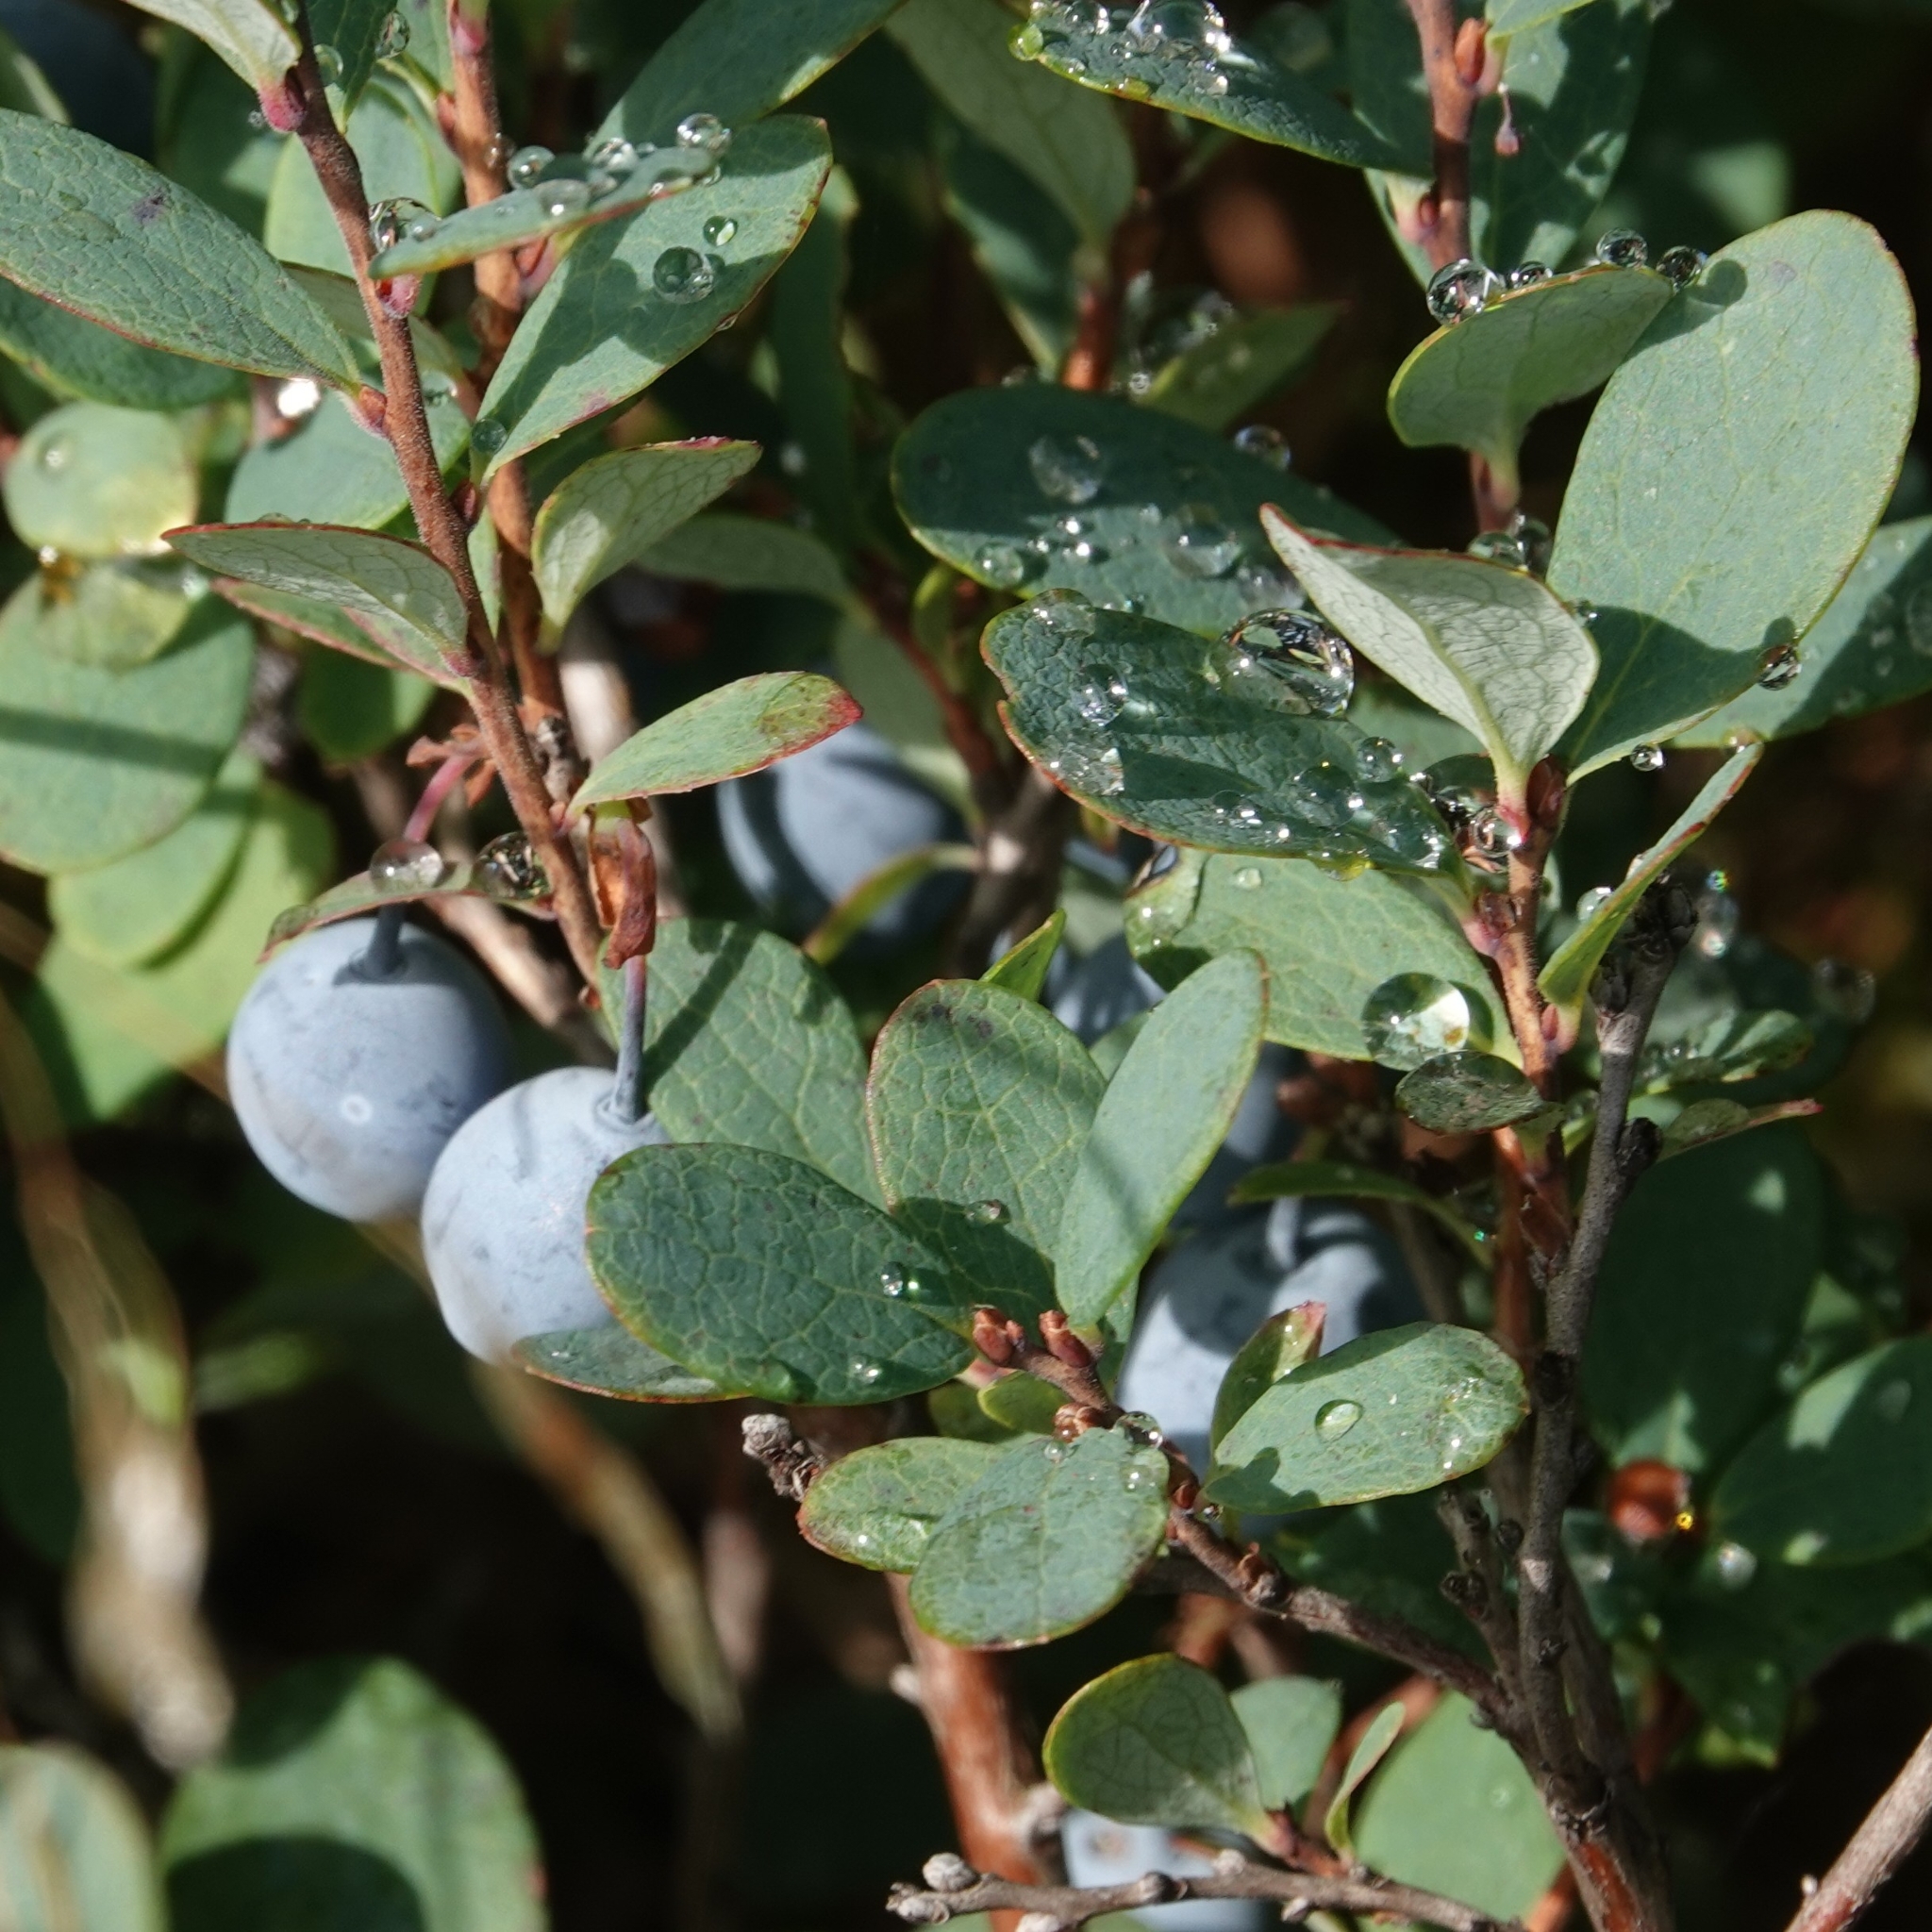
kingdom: Plantae
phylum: Tracheophyta
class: Magnoliopsida
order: Ericales
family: Ericaceae
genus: Vaccinium
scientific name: Vaccinium uliginosum
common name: Bog bilberry
